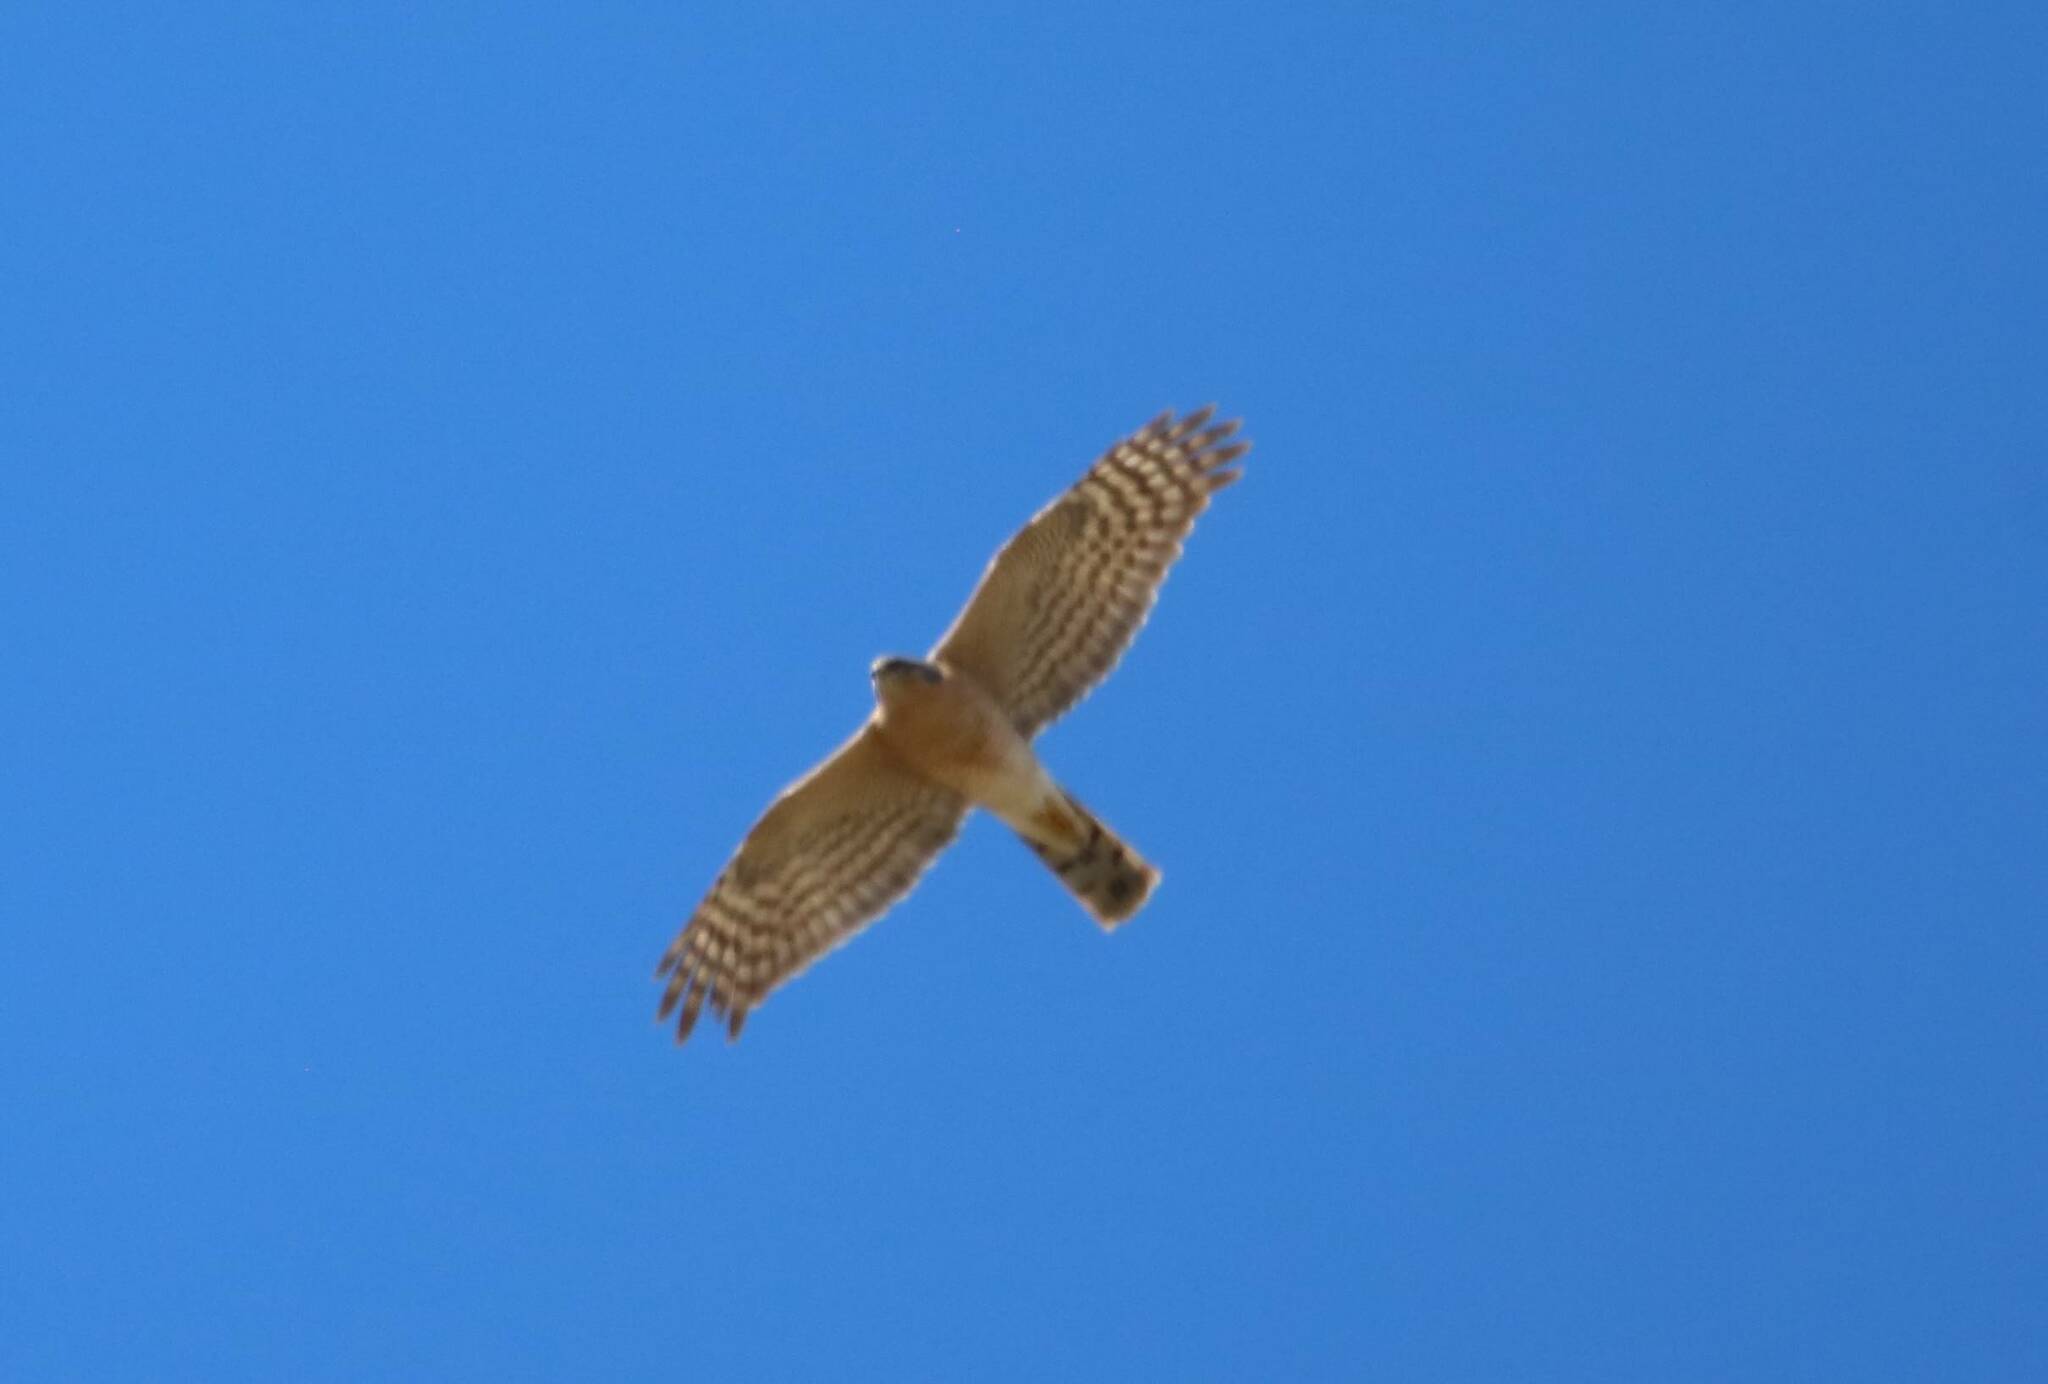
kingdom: Animalia
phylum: Chordata
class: Aves
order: Accipitriformes
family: Accipitridae
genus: Accipiter
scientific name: Accipiter nisus
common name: Eurasian sparrowhawk
